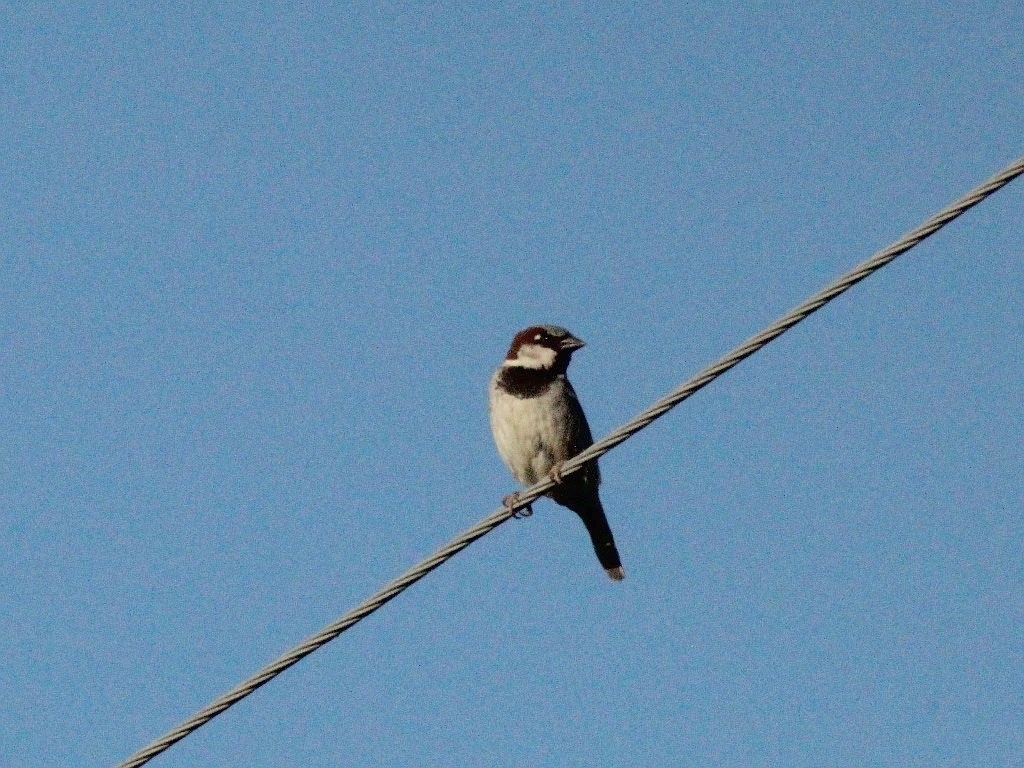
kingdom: Animalia
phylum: Chordata
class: Aves
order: Passeriformes
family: Passeridae
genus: Passer
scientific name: Passer domesticus
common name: House sparrow
